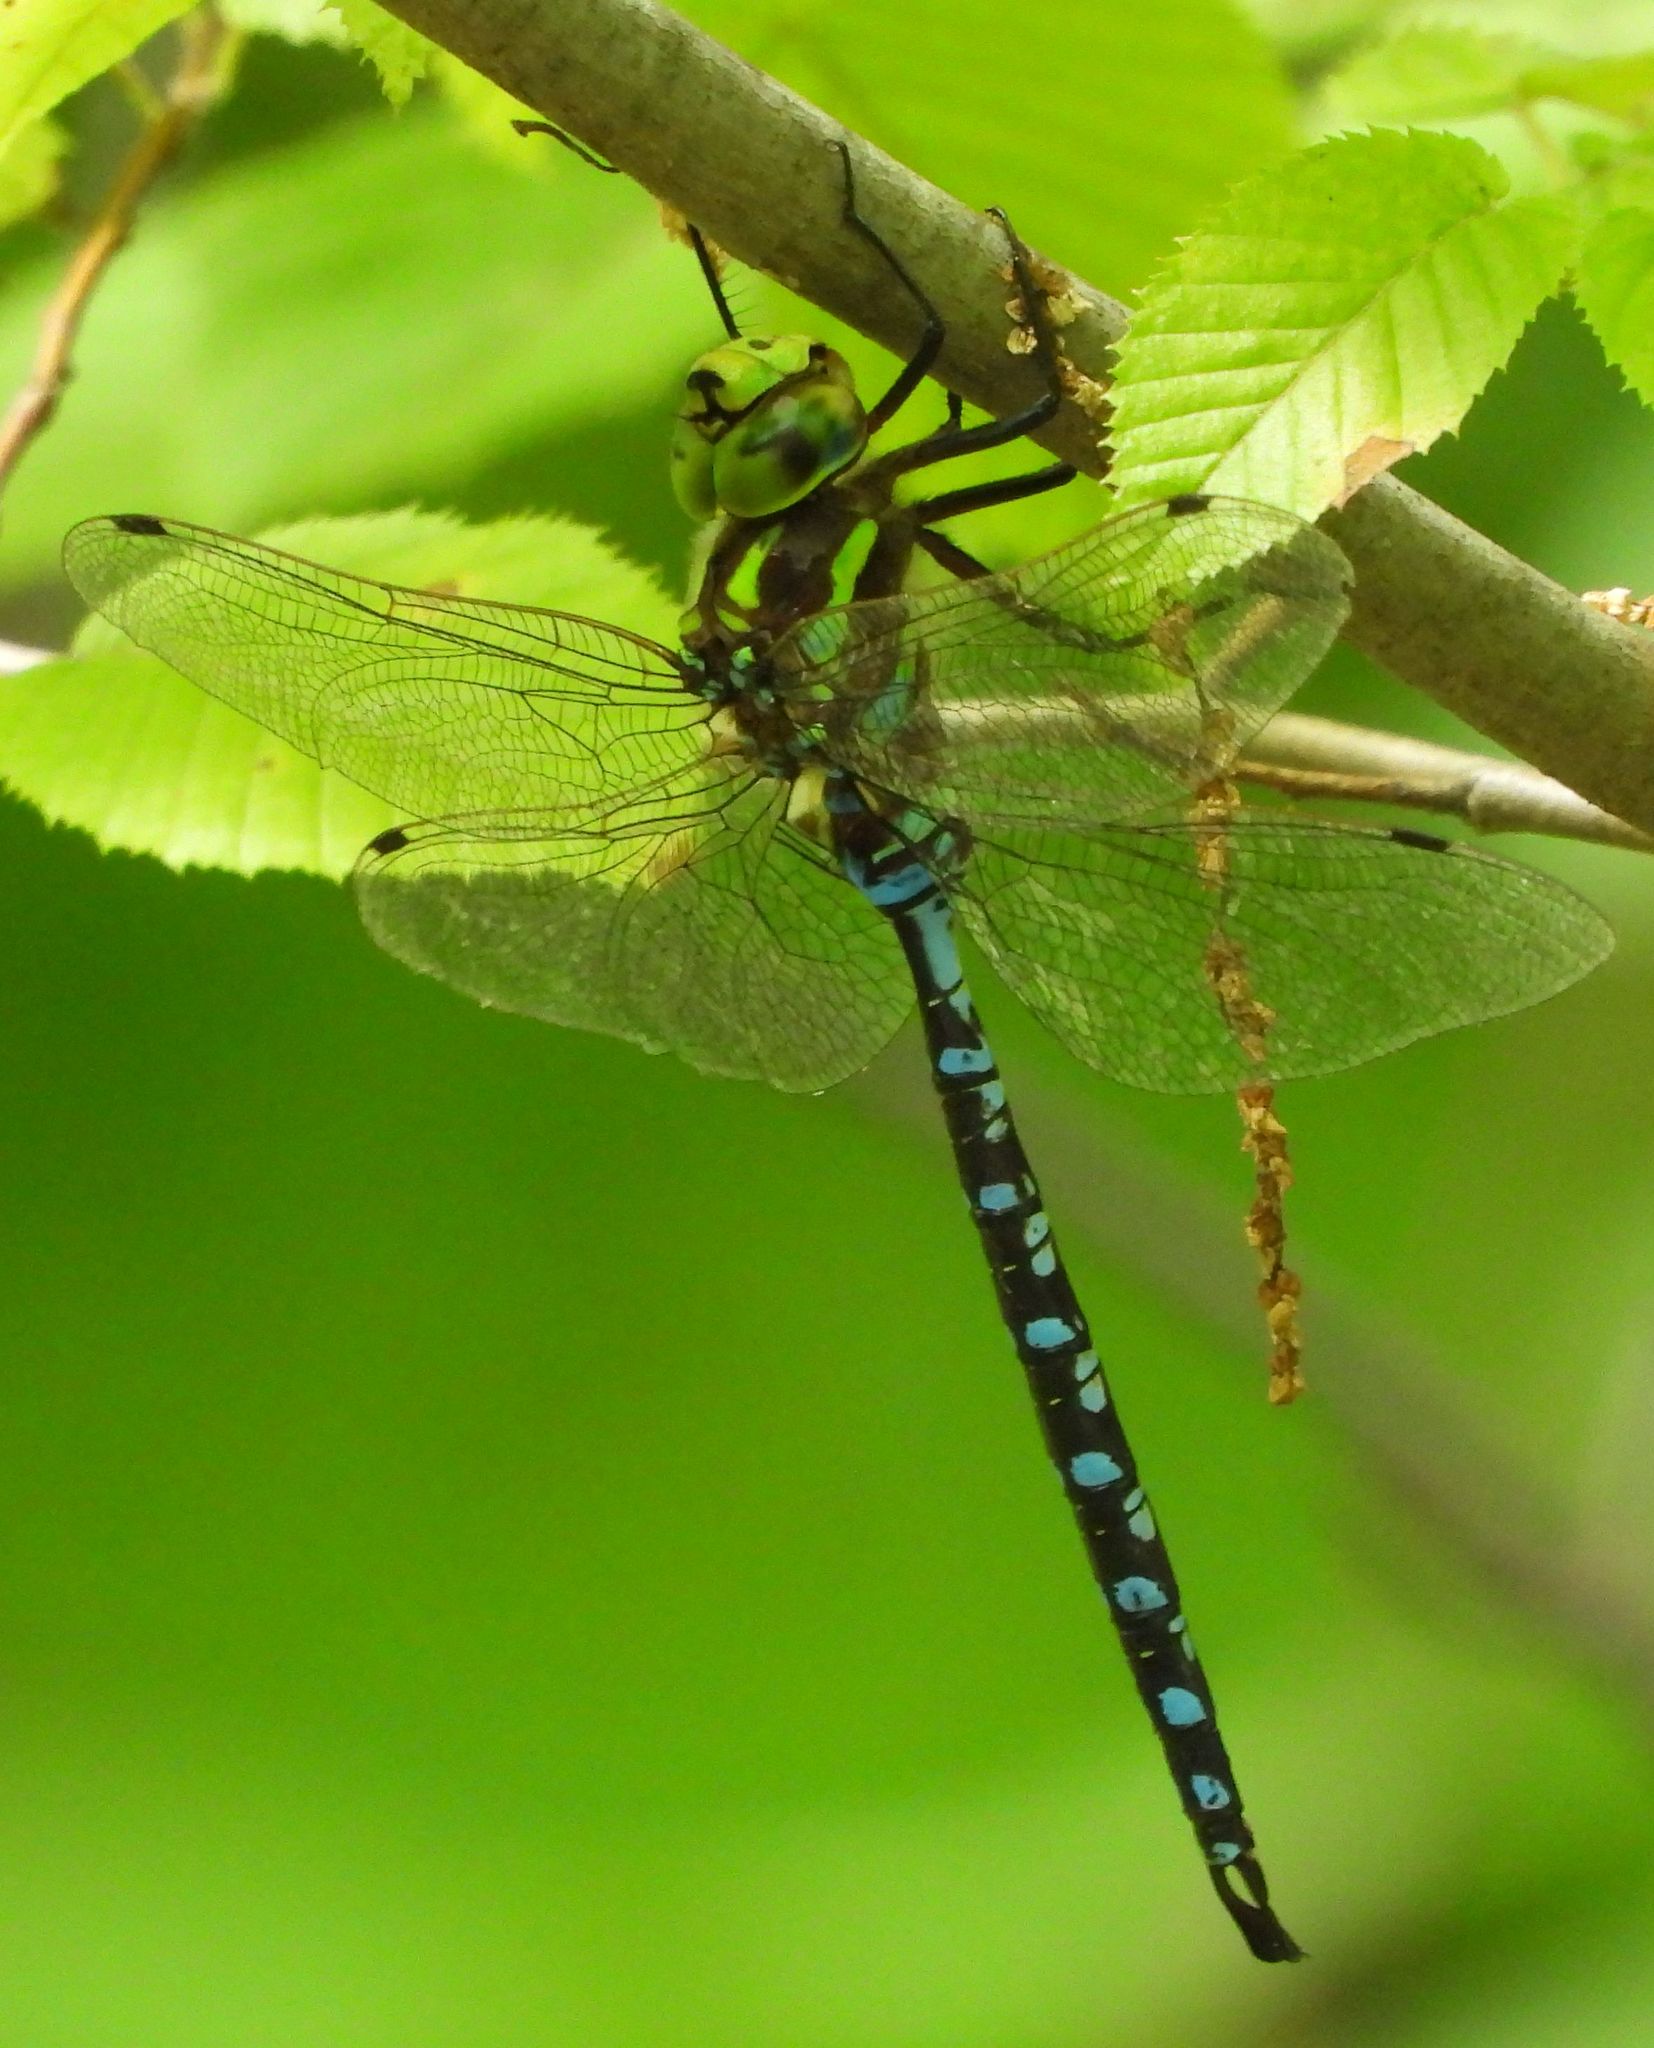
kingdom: Animalia
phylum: Arthropoda
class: Insecta
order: Odonata
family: Aeshnidae
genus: Aeshna
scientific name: Aeshna constricta
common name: Lance-tipped darner
